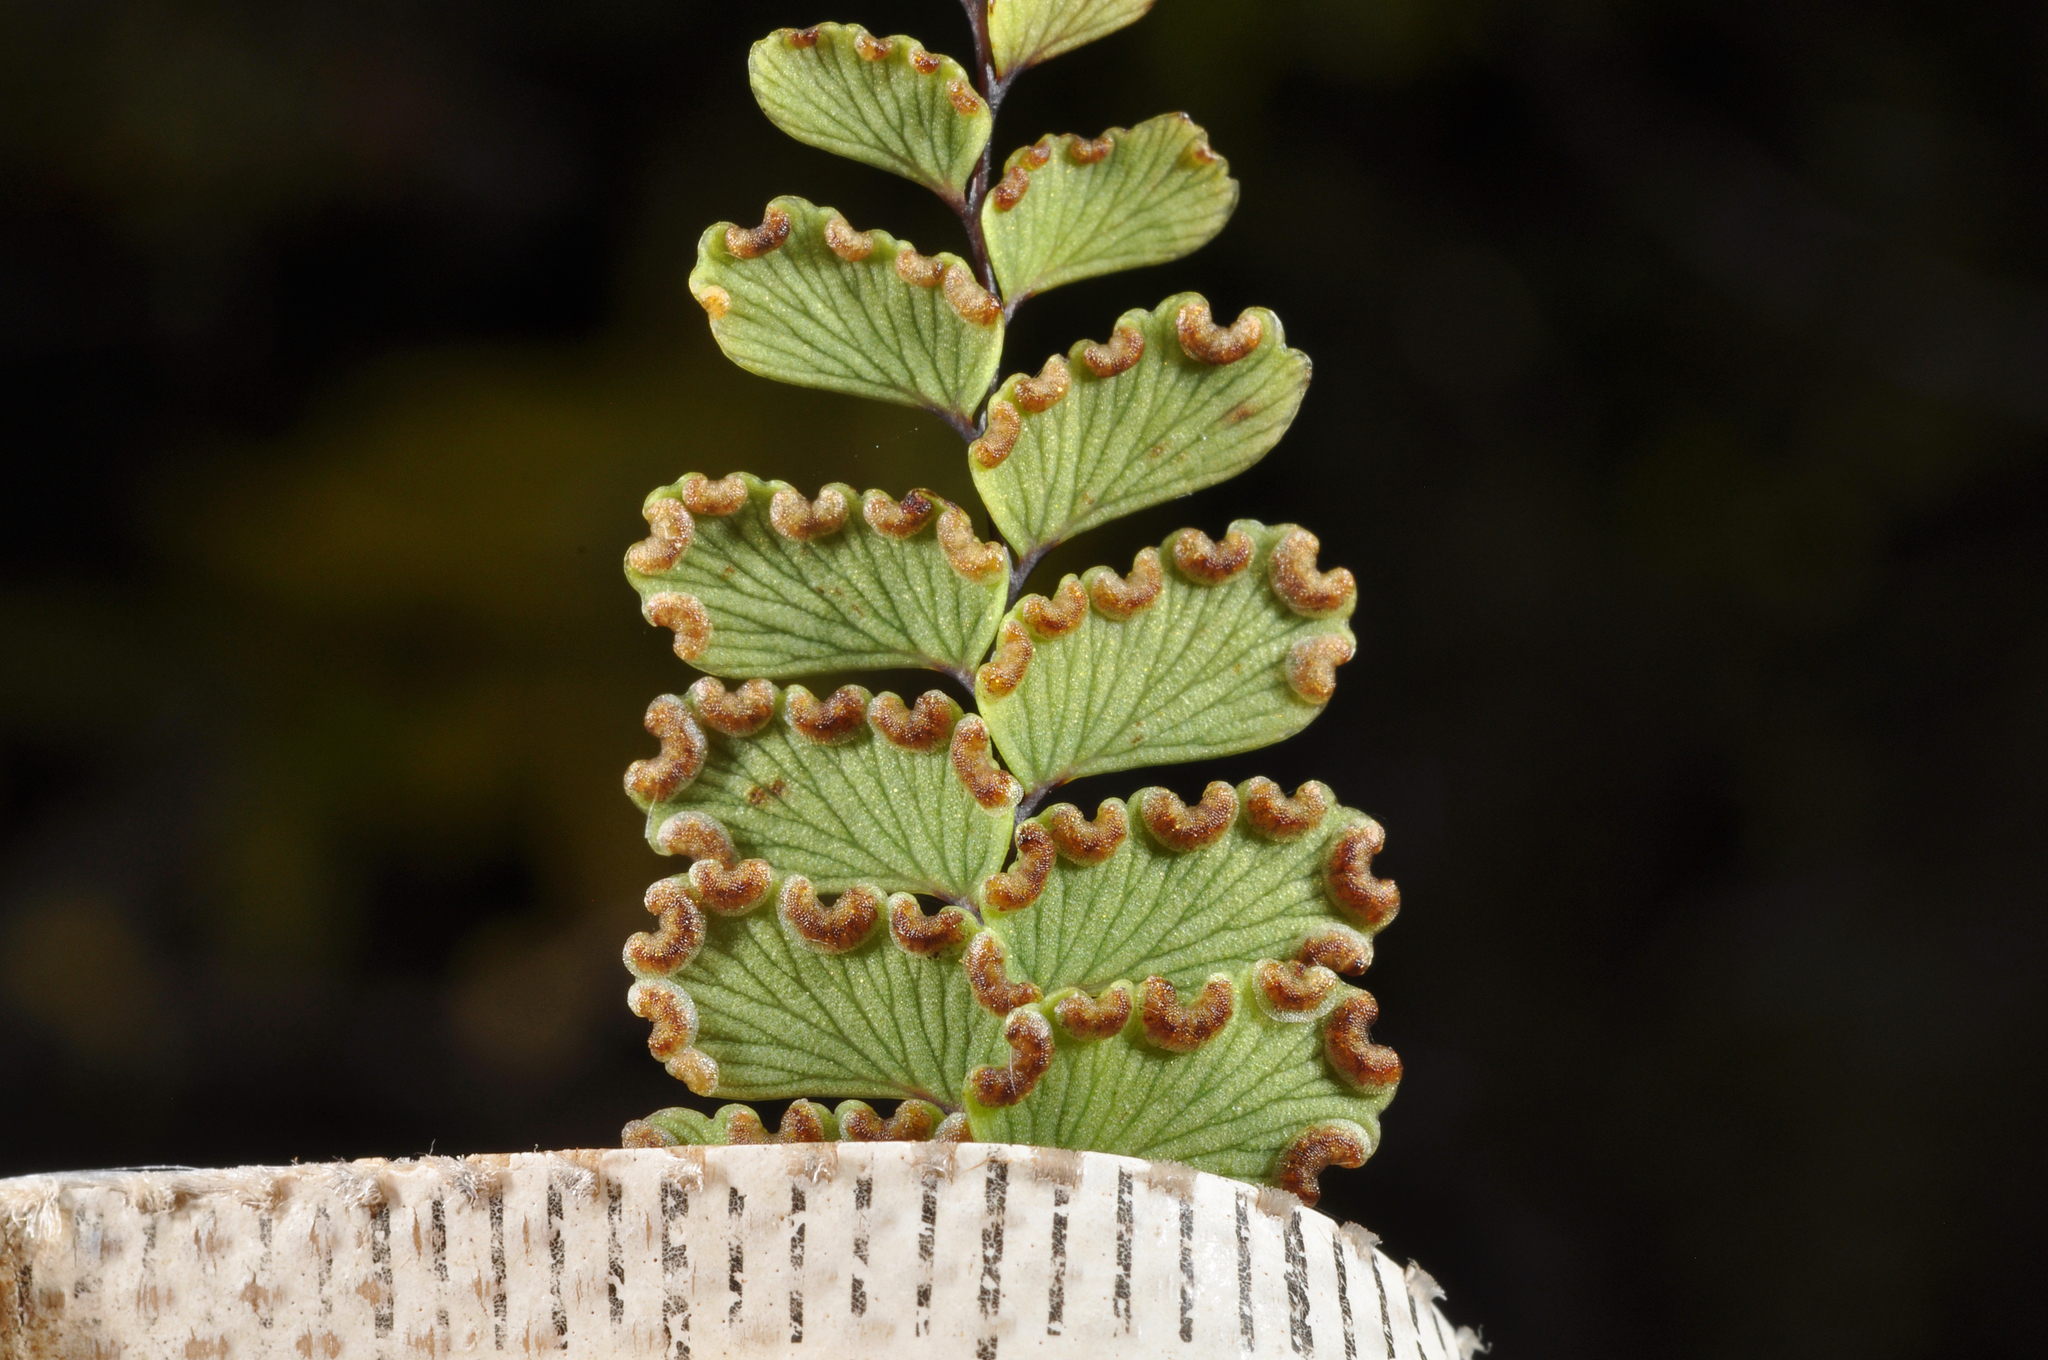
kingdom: Plantae
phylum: Tracheophyta
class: Polypodiopsida
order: Polypodiales
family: Pteridaceae
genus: Adiantum
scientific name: Adiantum cunninghamii
